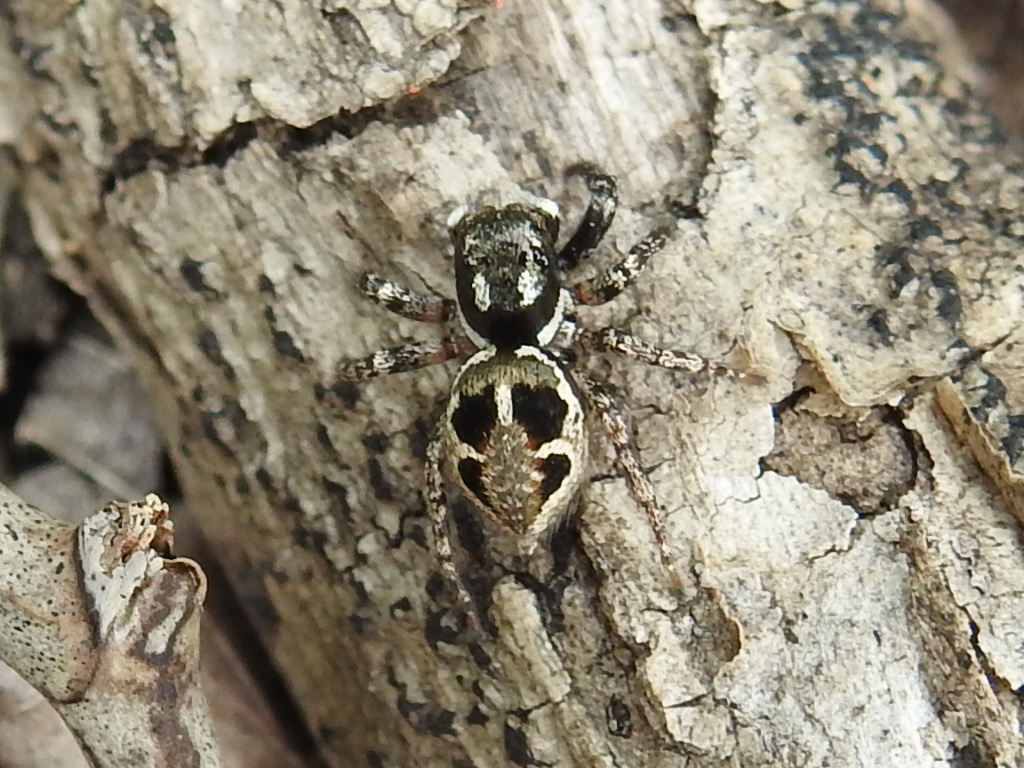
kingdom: Animalia
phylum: Arthropoda
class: Arachnida
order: Araneae
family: Salticidae
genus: Anasaitis
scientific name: Anasaitis canosa
